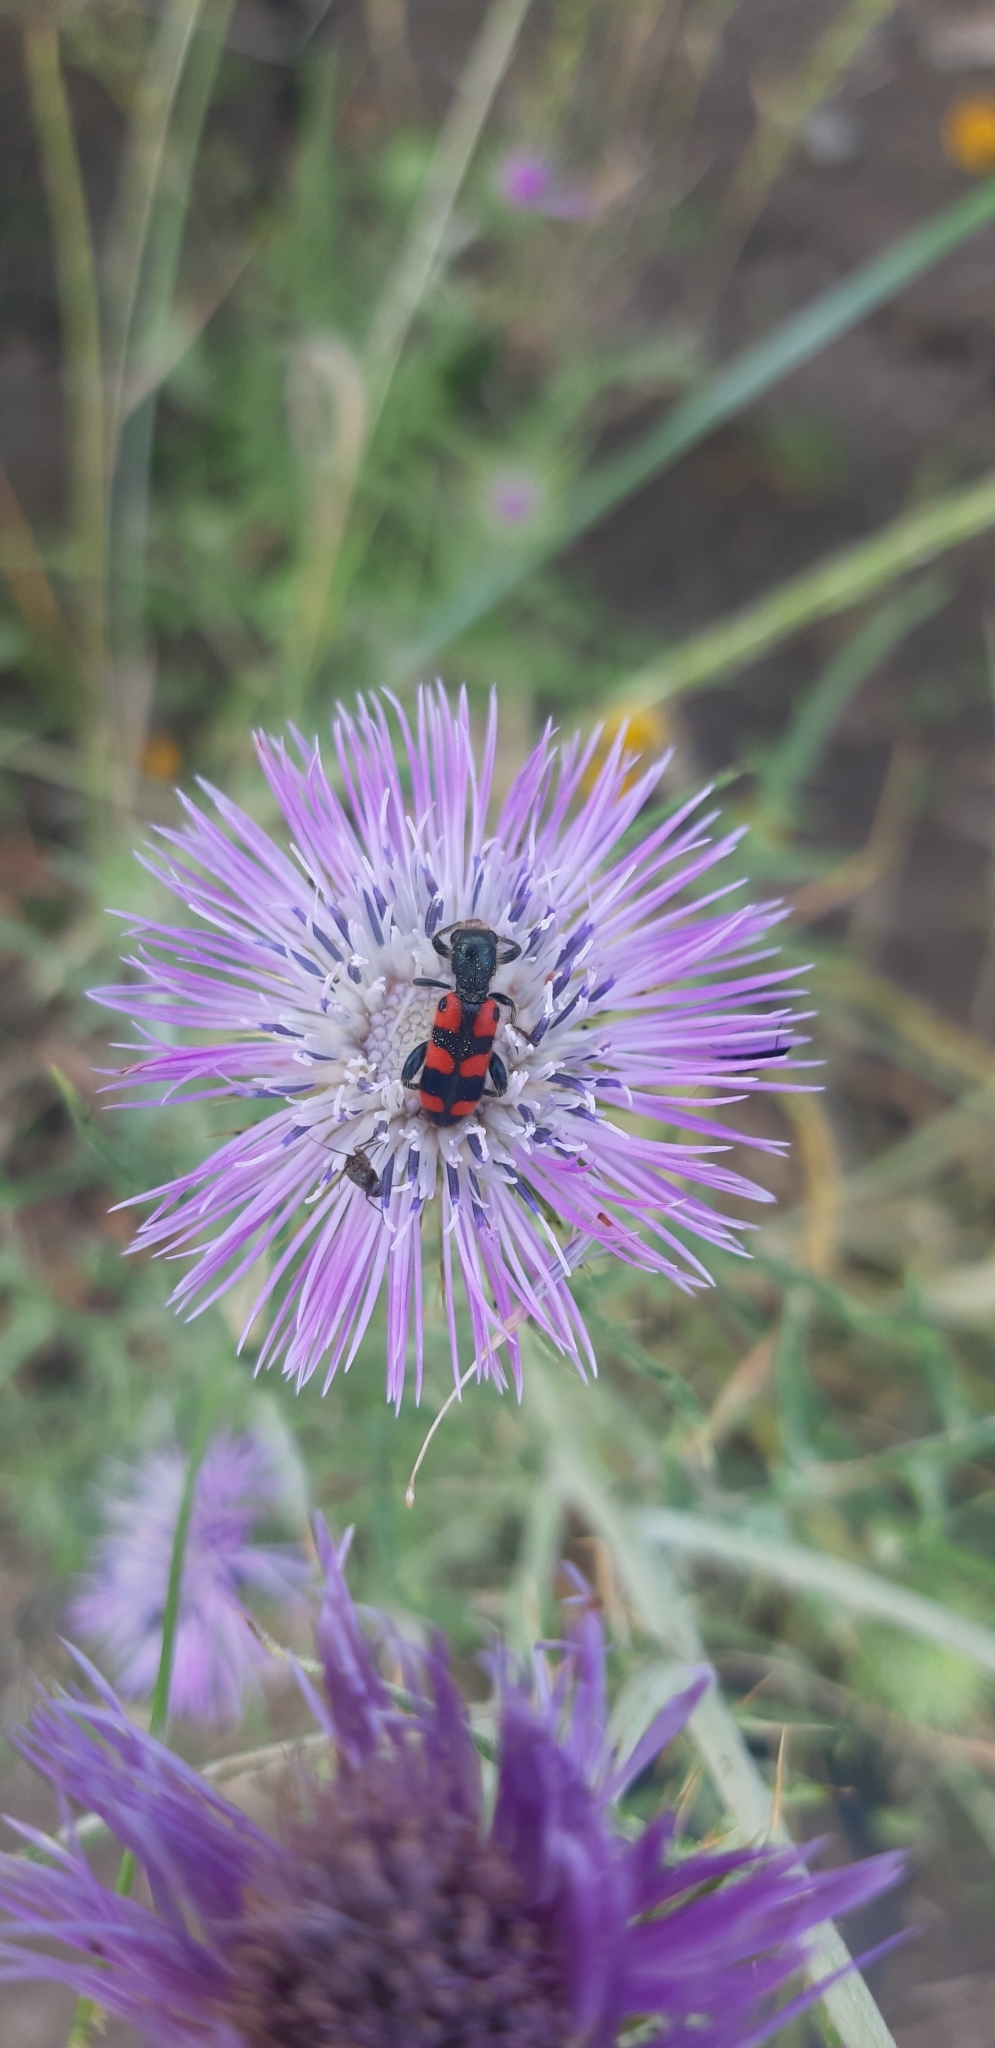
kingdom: Animalia
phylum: Arthropoda
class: Insecta
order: Coleoptera
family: Cleridae
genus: Trichodes
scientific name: Trichodes leucopsideus
